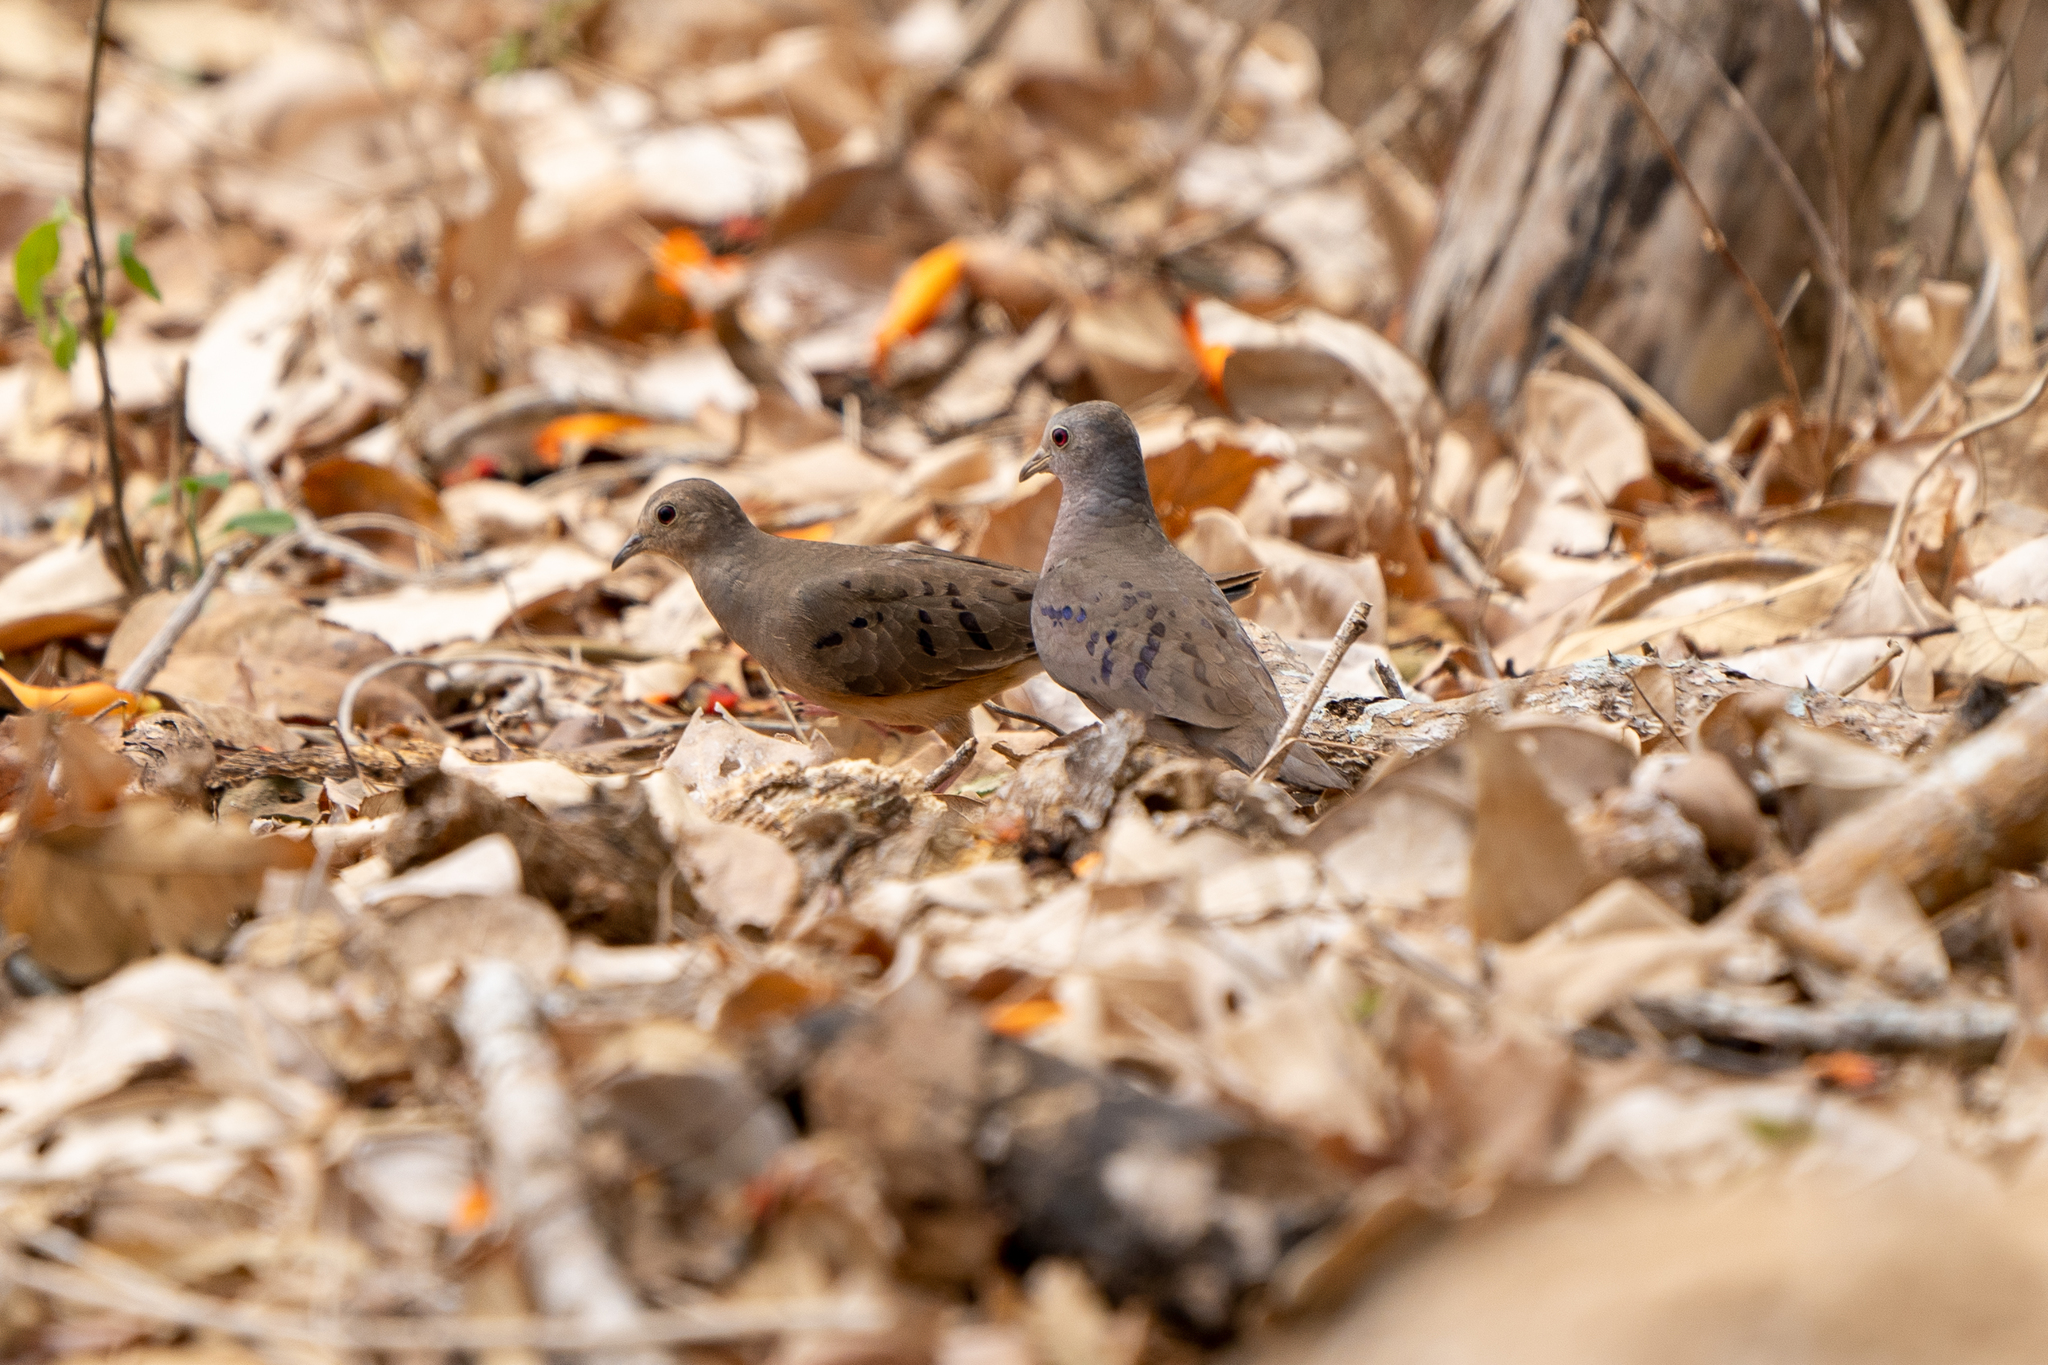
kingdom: Animalia
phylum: Chordata
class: Aves
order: Columbiformes
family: Columbidae
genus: Columbina
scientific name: Columbina minuta
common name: Plain-breasted ground dove
